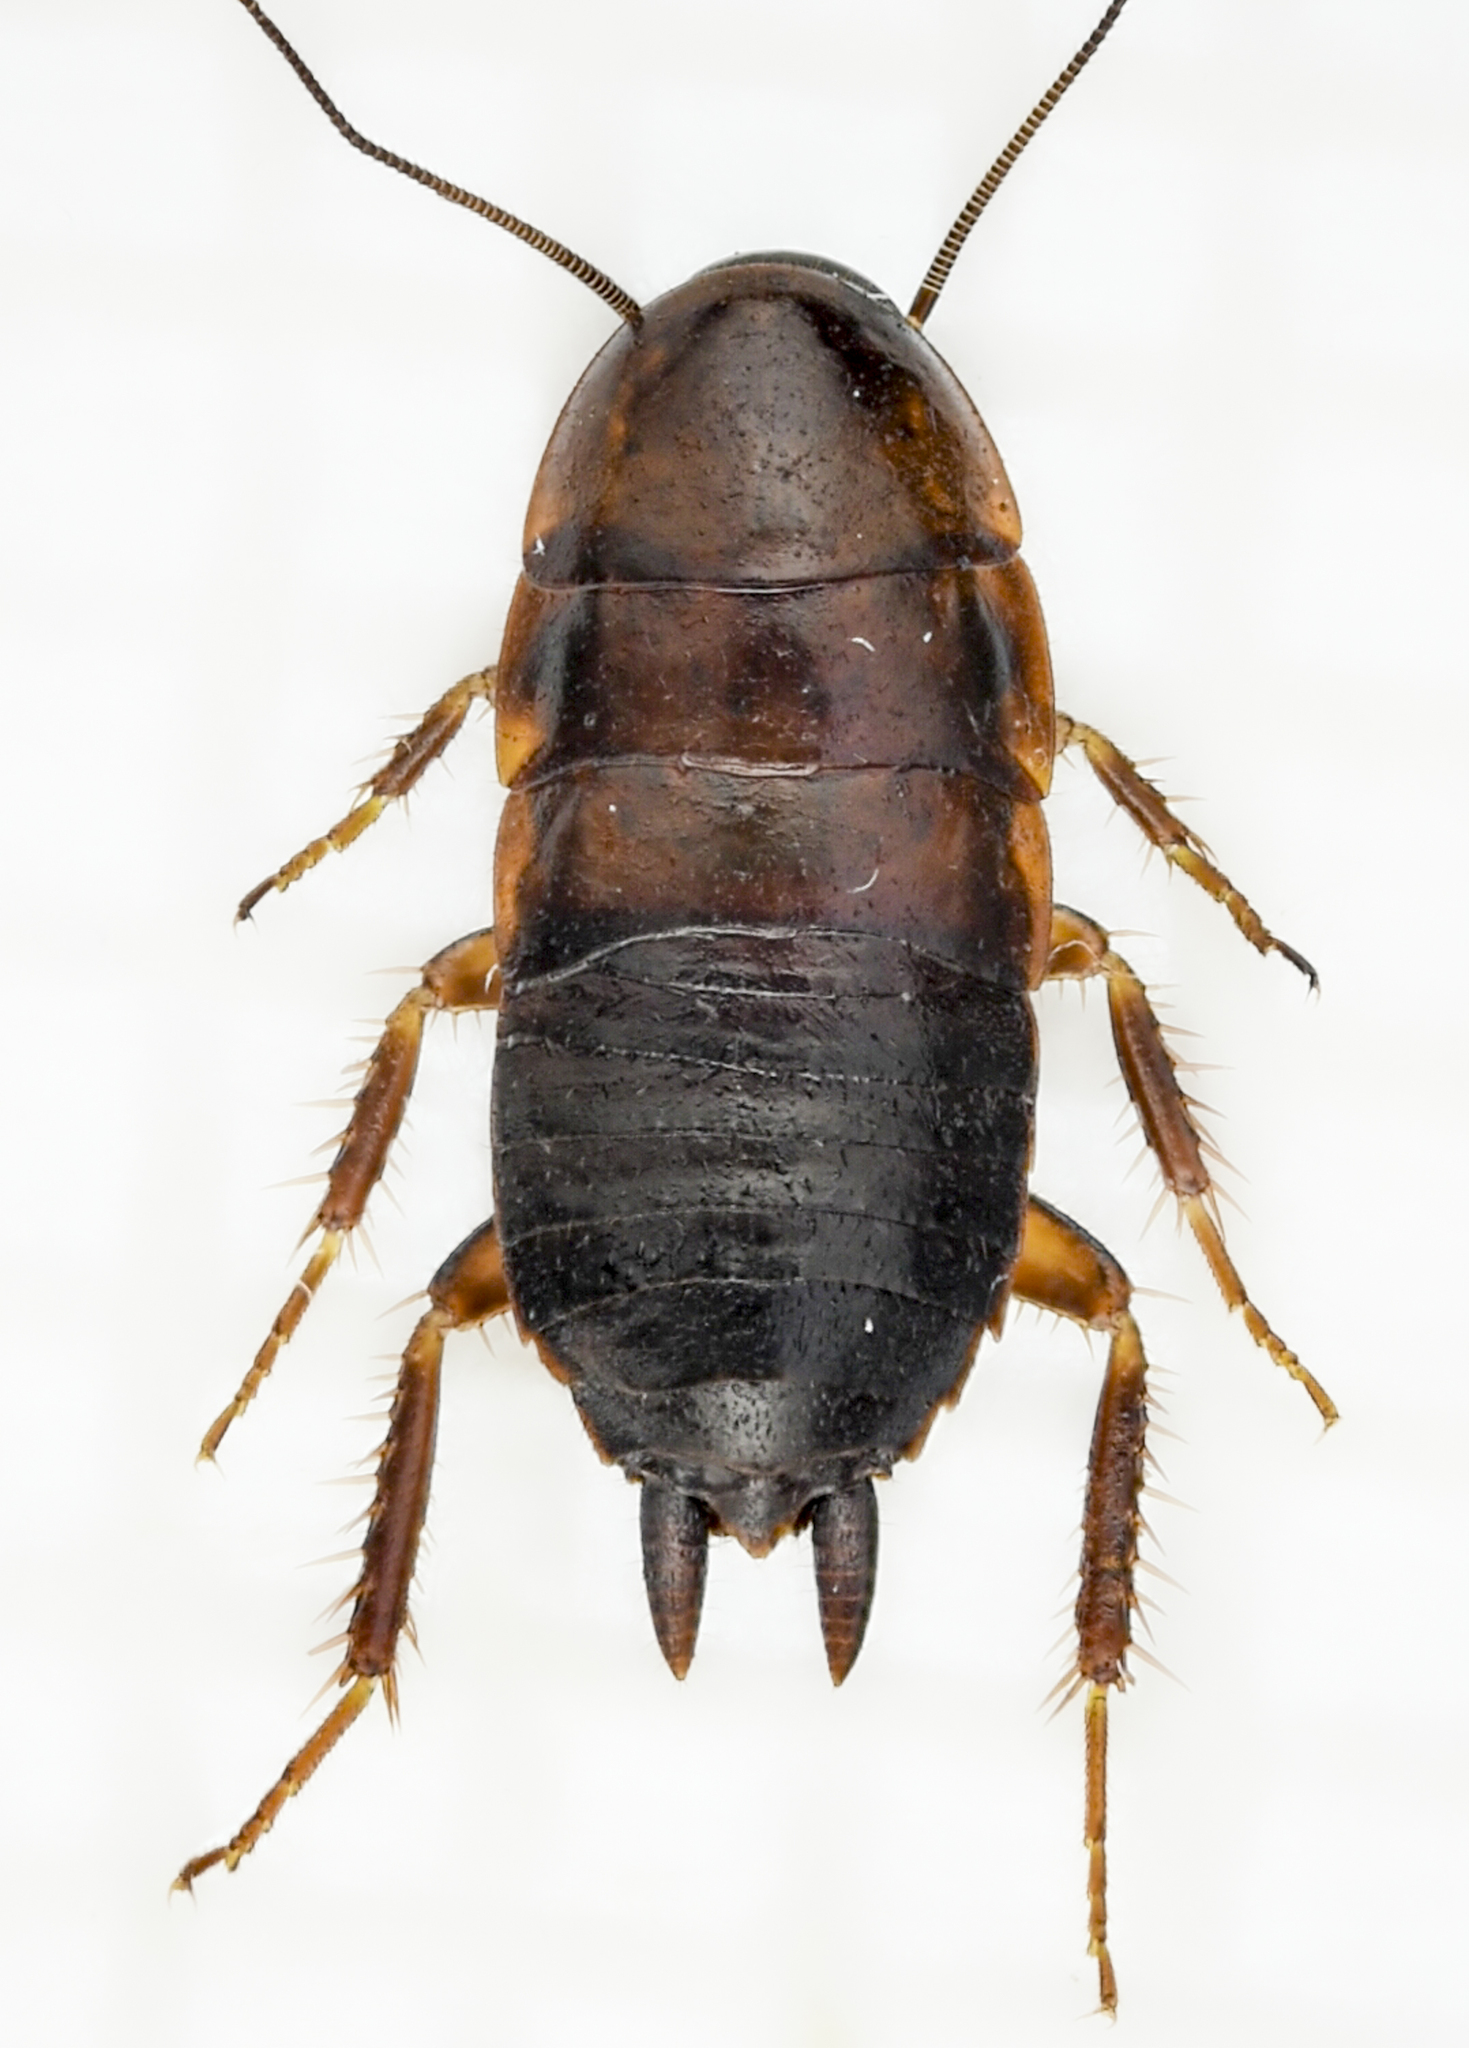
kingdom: Animalia
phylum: Arthropoda
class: Insecta
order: Blattodea
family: Ectobiidae
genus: Parcoblatta
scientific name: Parcoblatta americana
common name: Western wood cockroach
